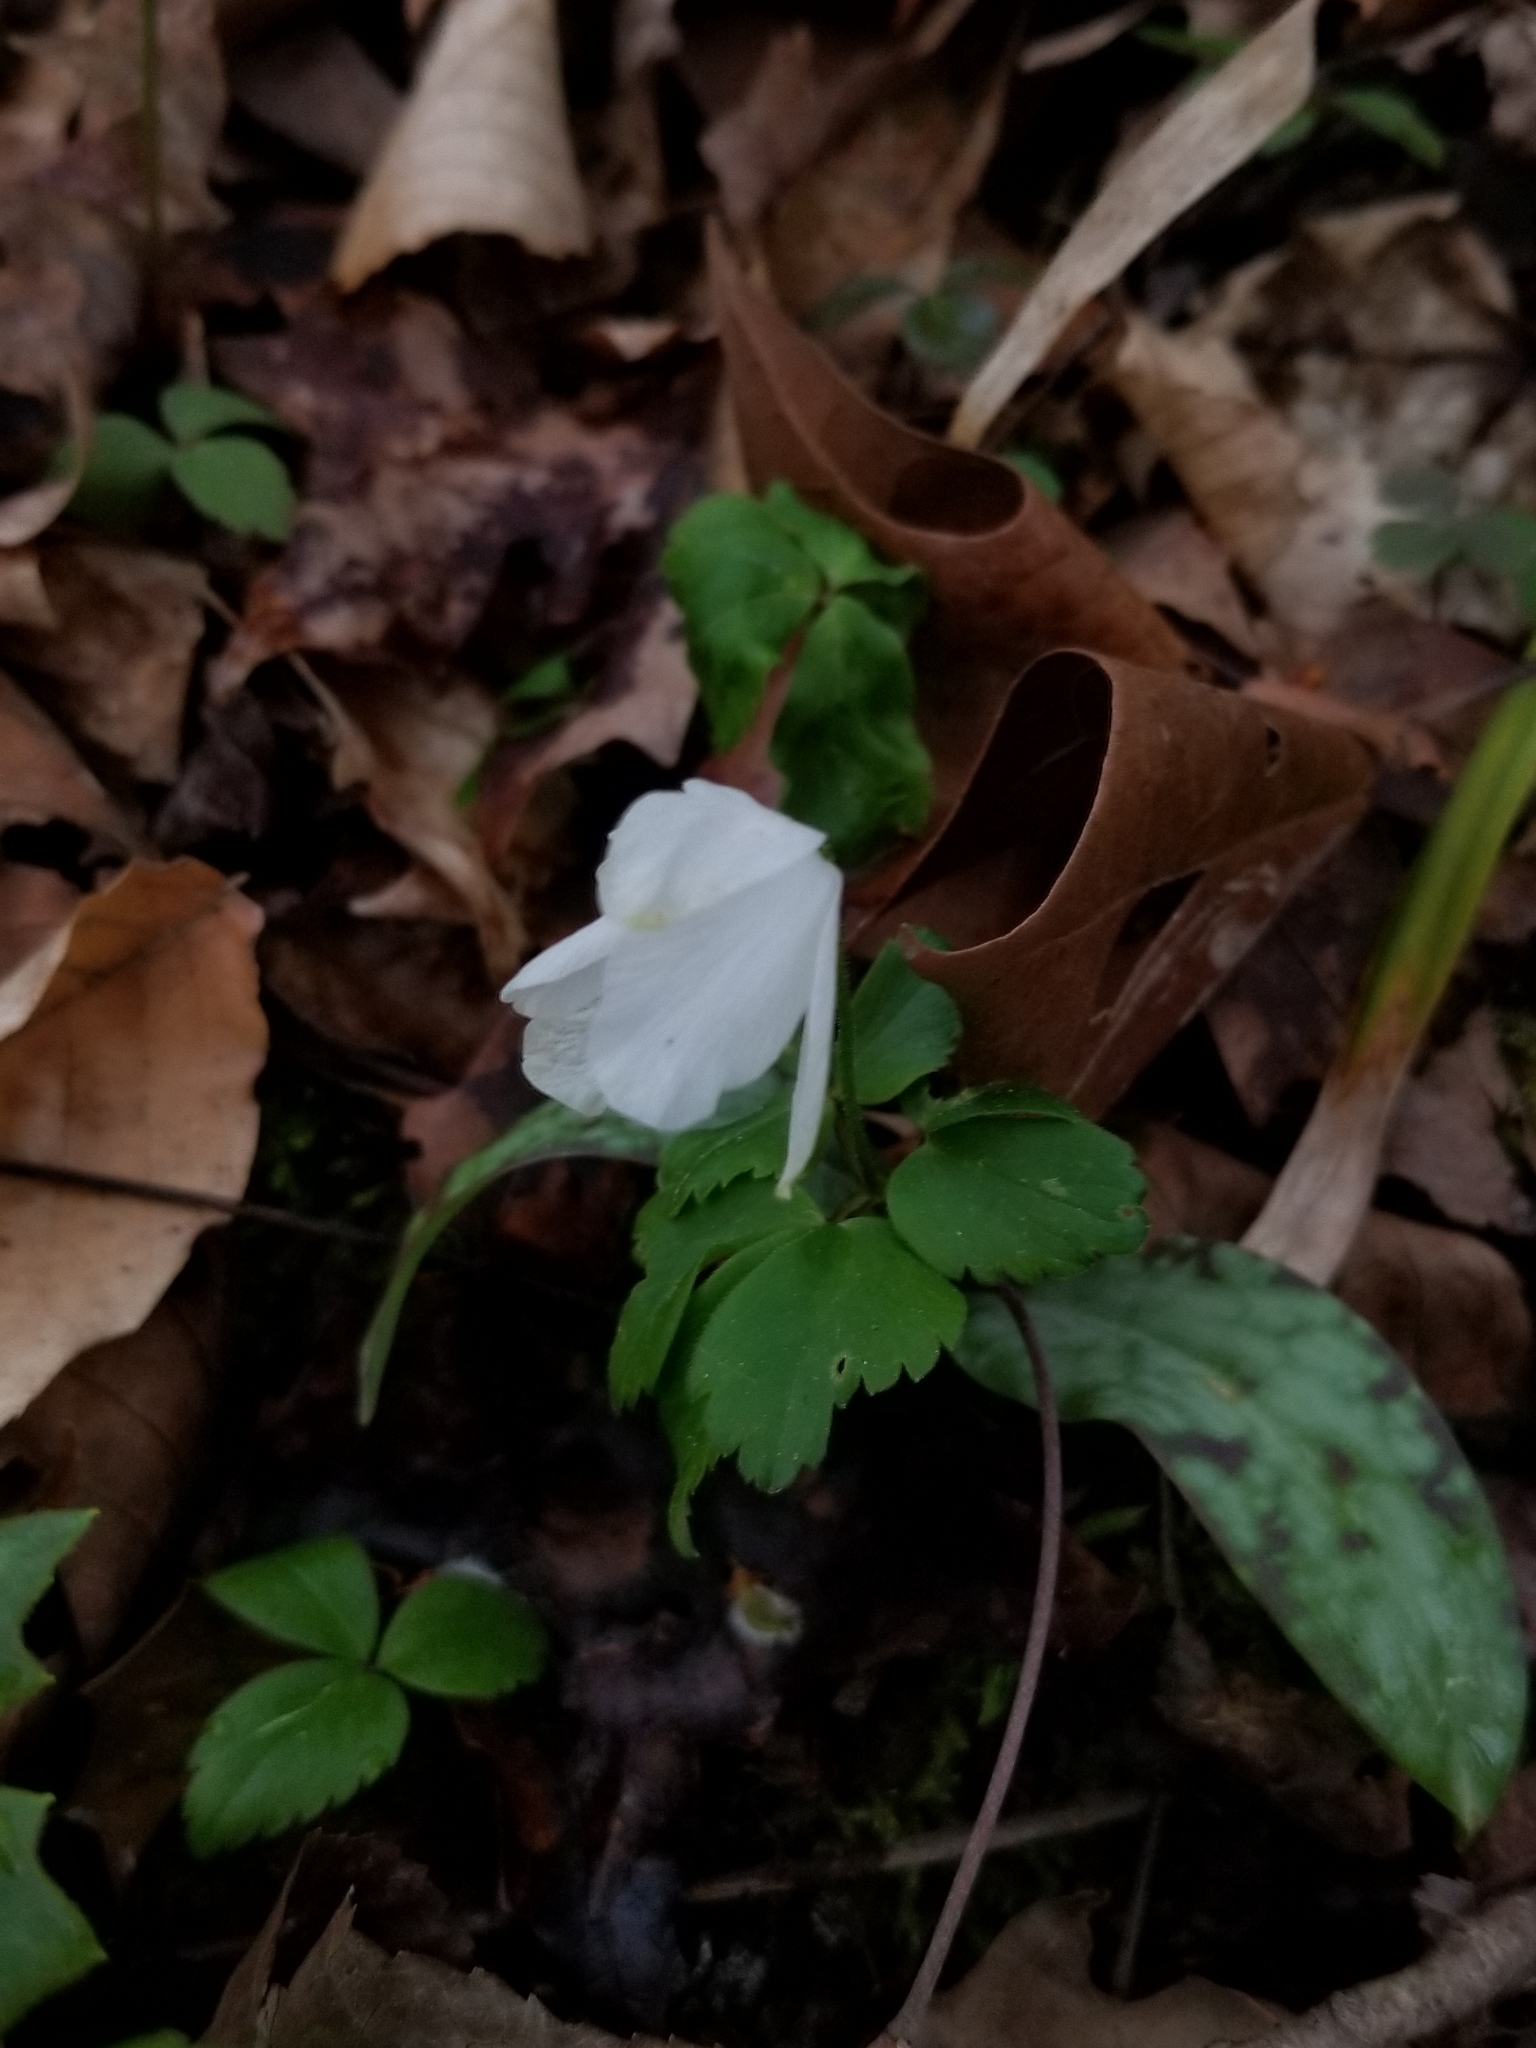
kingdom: Plantae
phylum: Tracheophyta
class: Magnoliopsida
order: Ranunculales
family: Ranunculaceae
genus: Anemone
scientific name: Anemone quinquefolia
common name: Wood anemone
